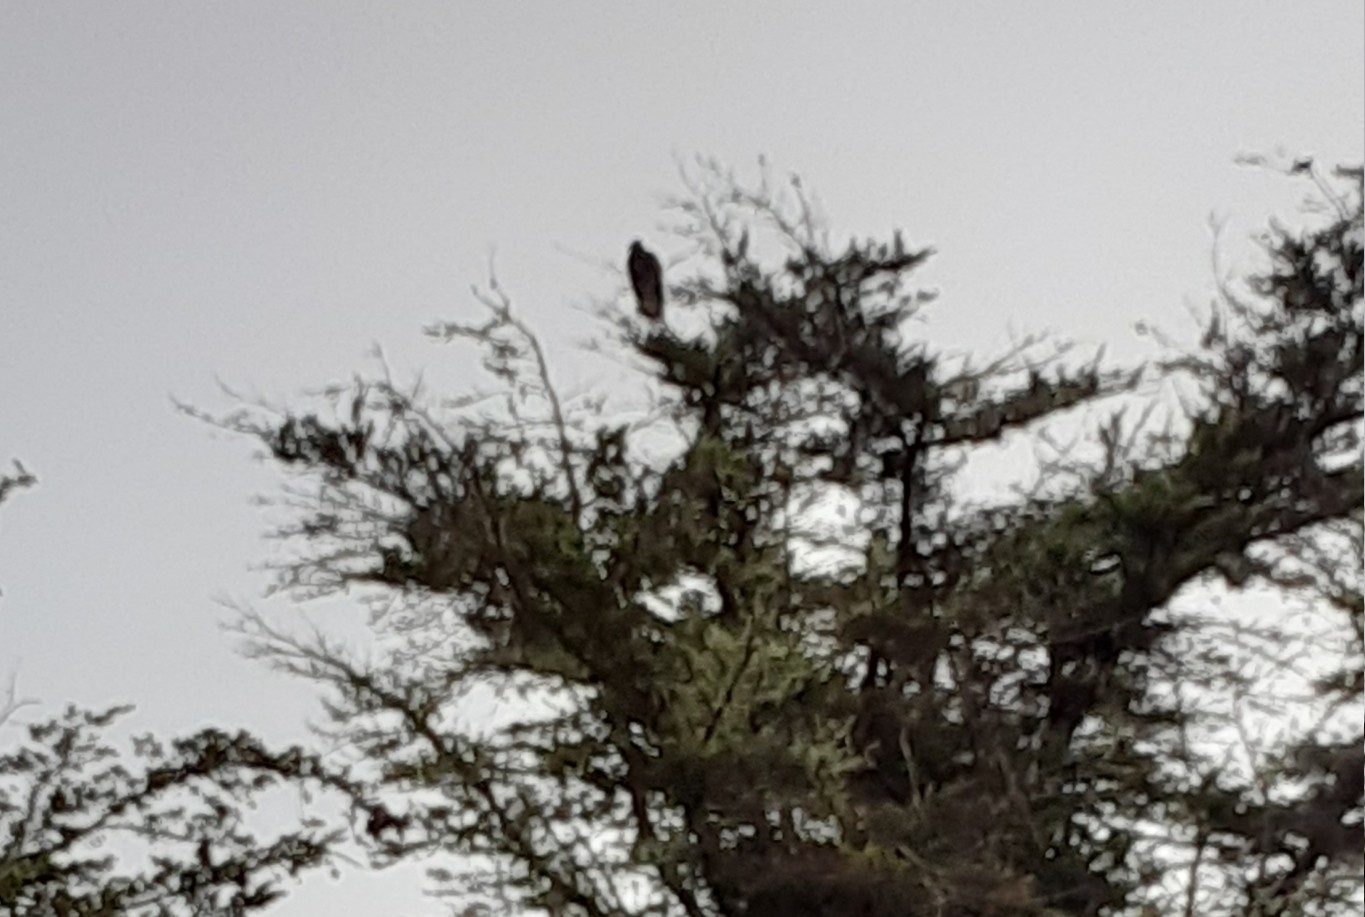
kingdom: Animalia
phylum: Chordata
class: Aves
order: Accipitriformes
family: Cathartidae
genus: Cathartes
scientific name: Cathartes aura
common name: Turkey vulture
